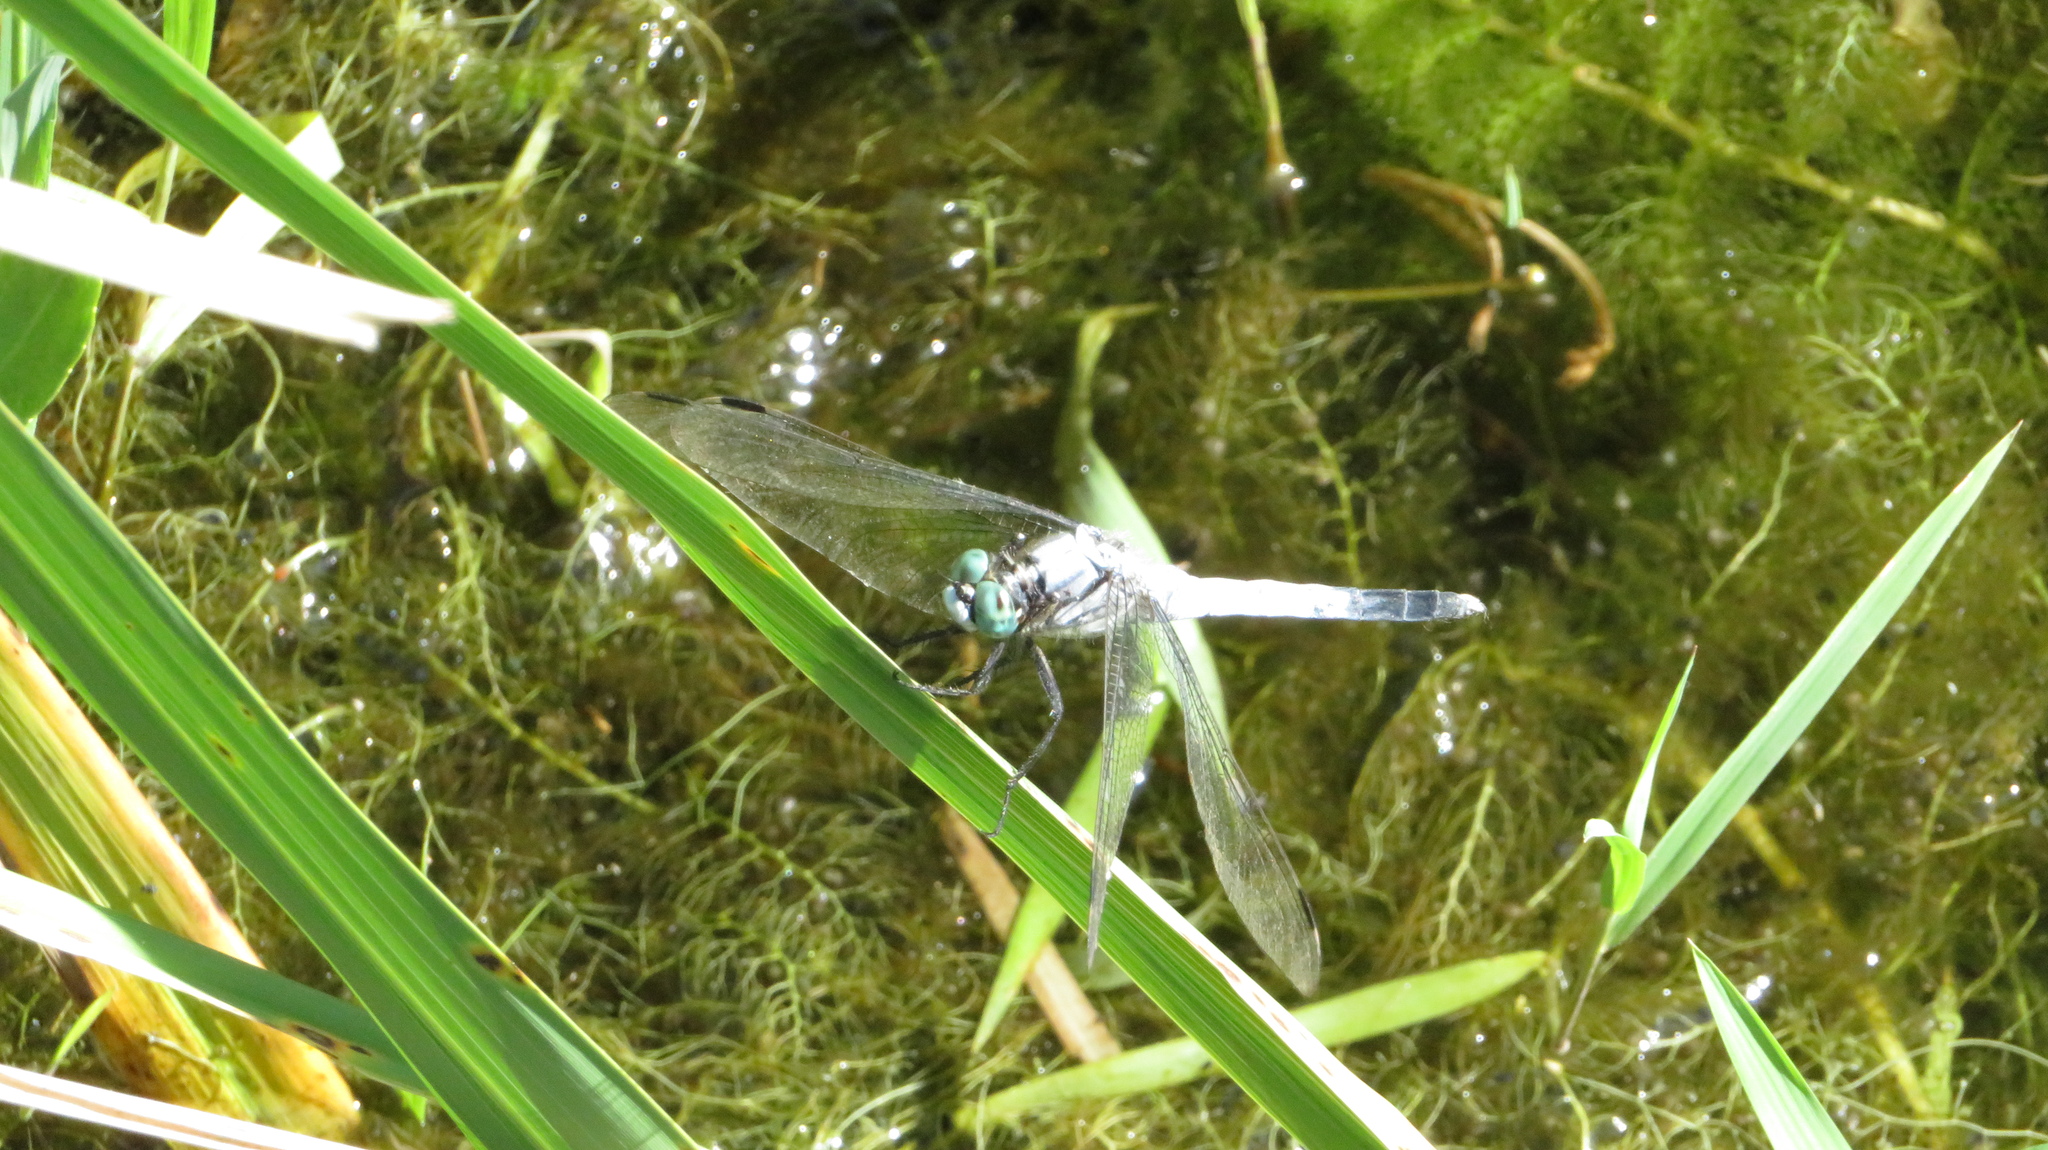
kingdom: Animalia
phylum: Arthropoda
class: Insecta
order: Odonata
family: Libellulidae
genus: Orthetrum
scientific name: Orthetrum albistylum
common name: White-tailed skimmer
